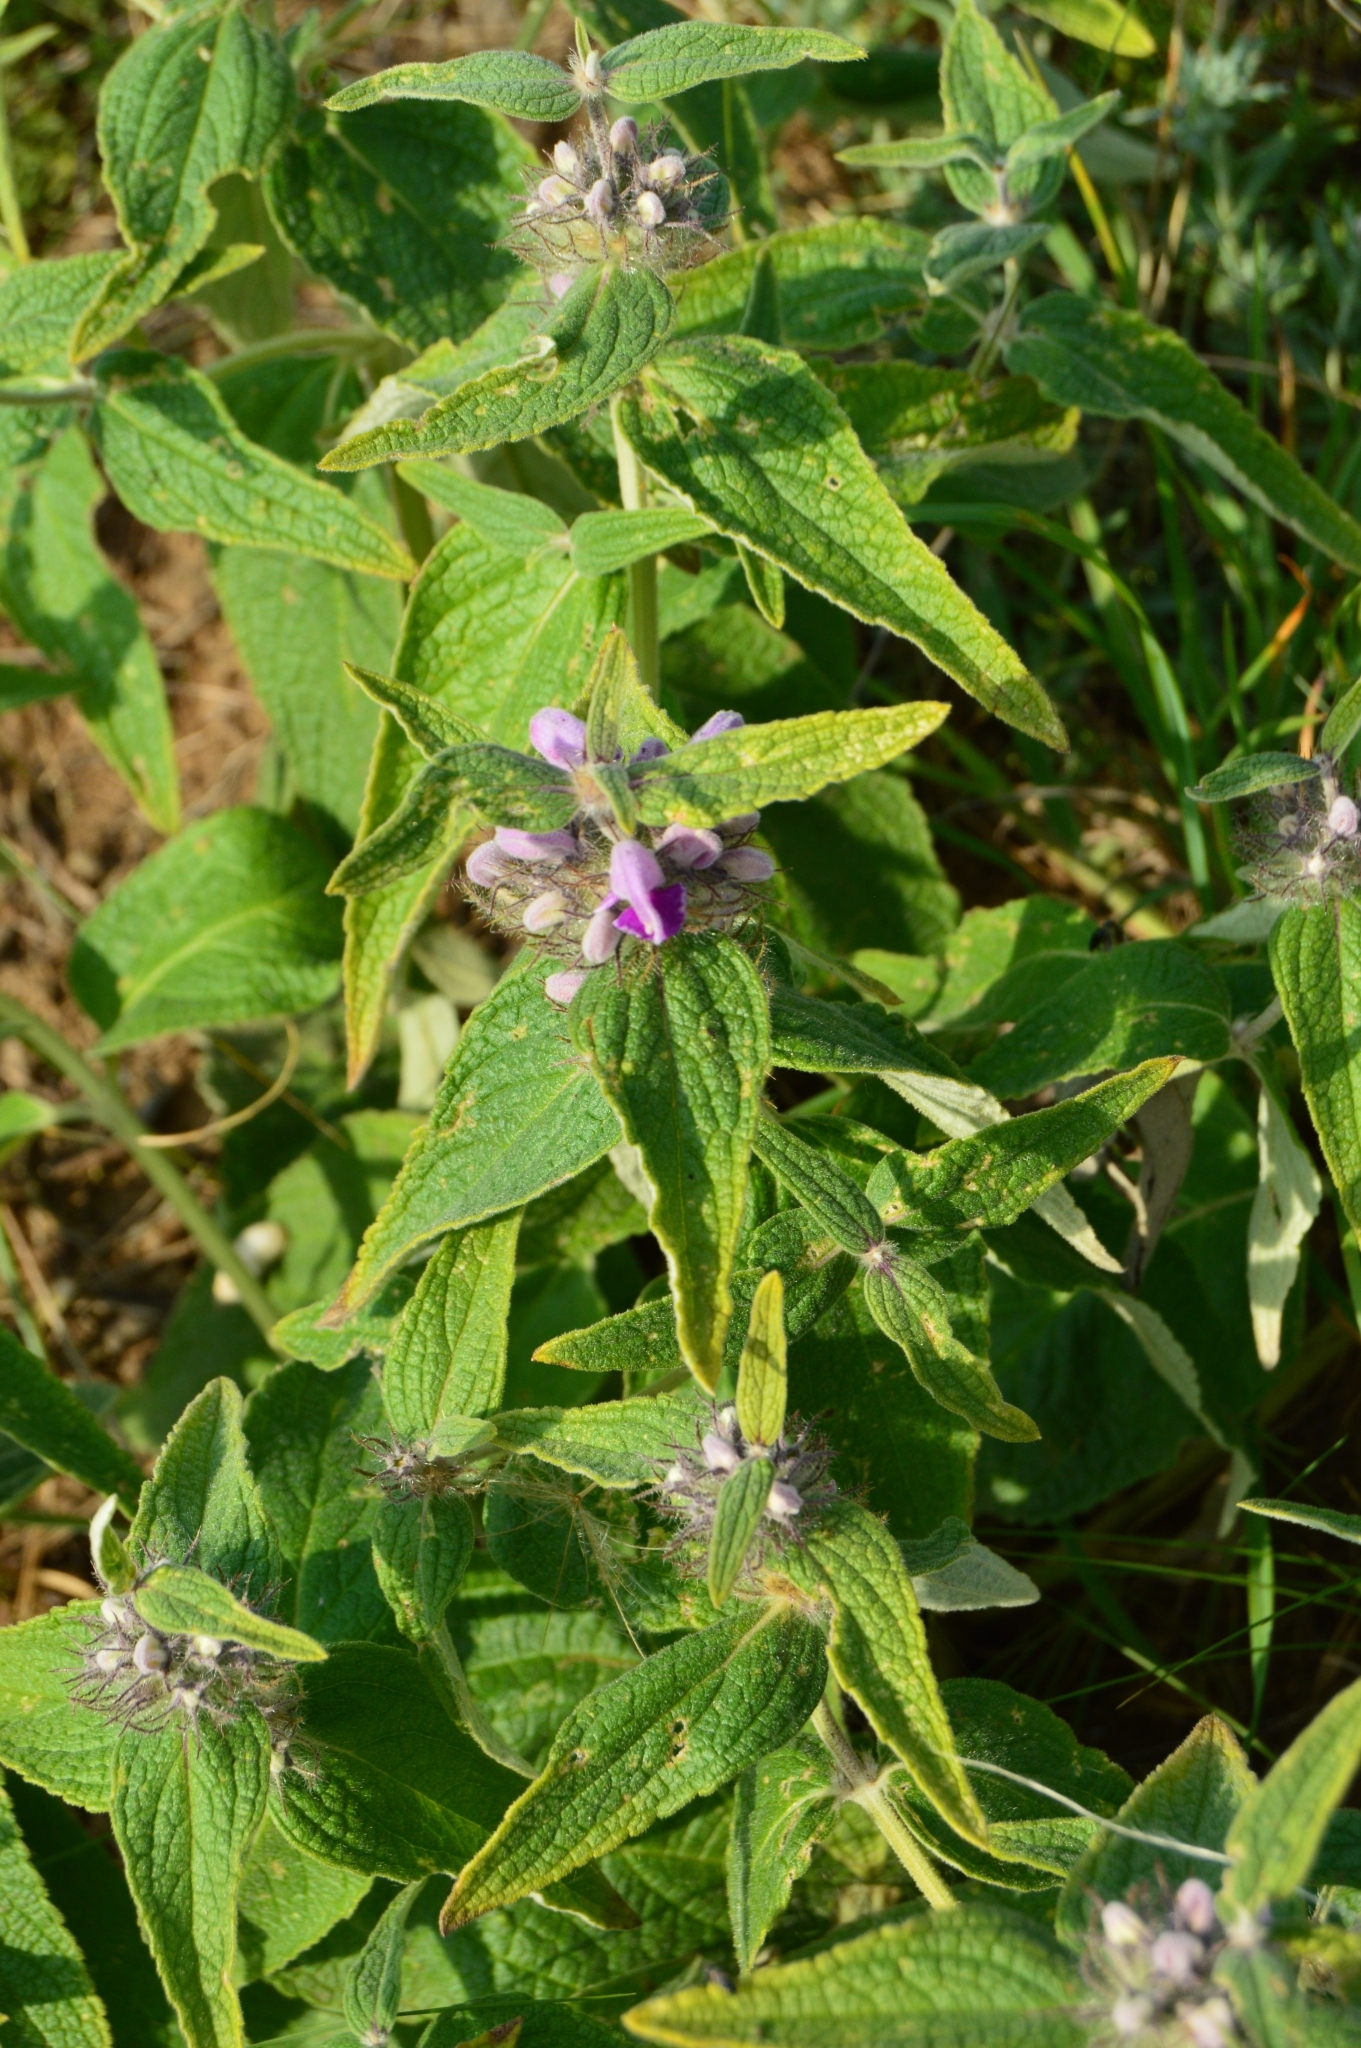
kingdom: Plantae
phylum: Tracheophyta
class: Magnoliopsida
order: Lamiales
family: Lamiaceae
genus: Phlomis
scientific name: Phlomis herba-venti
